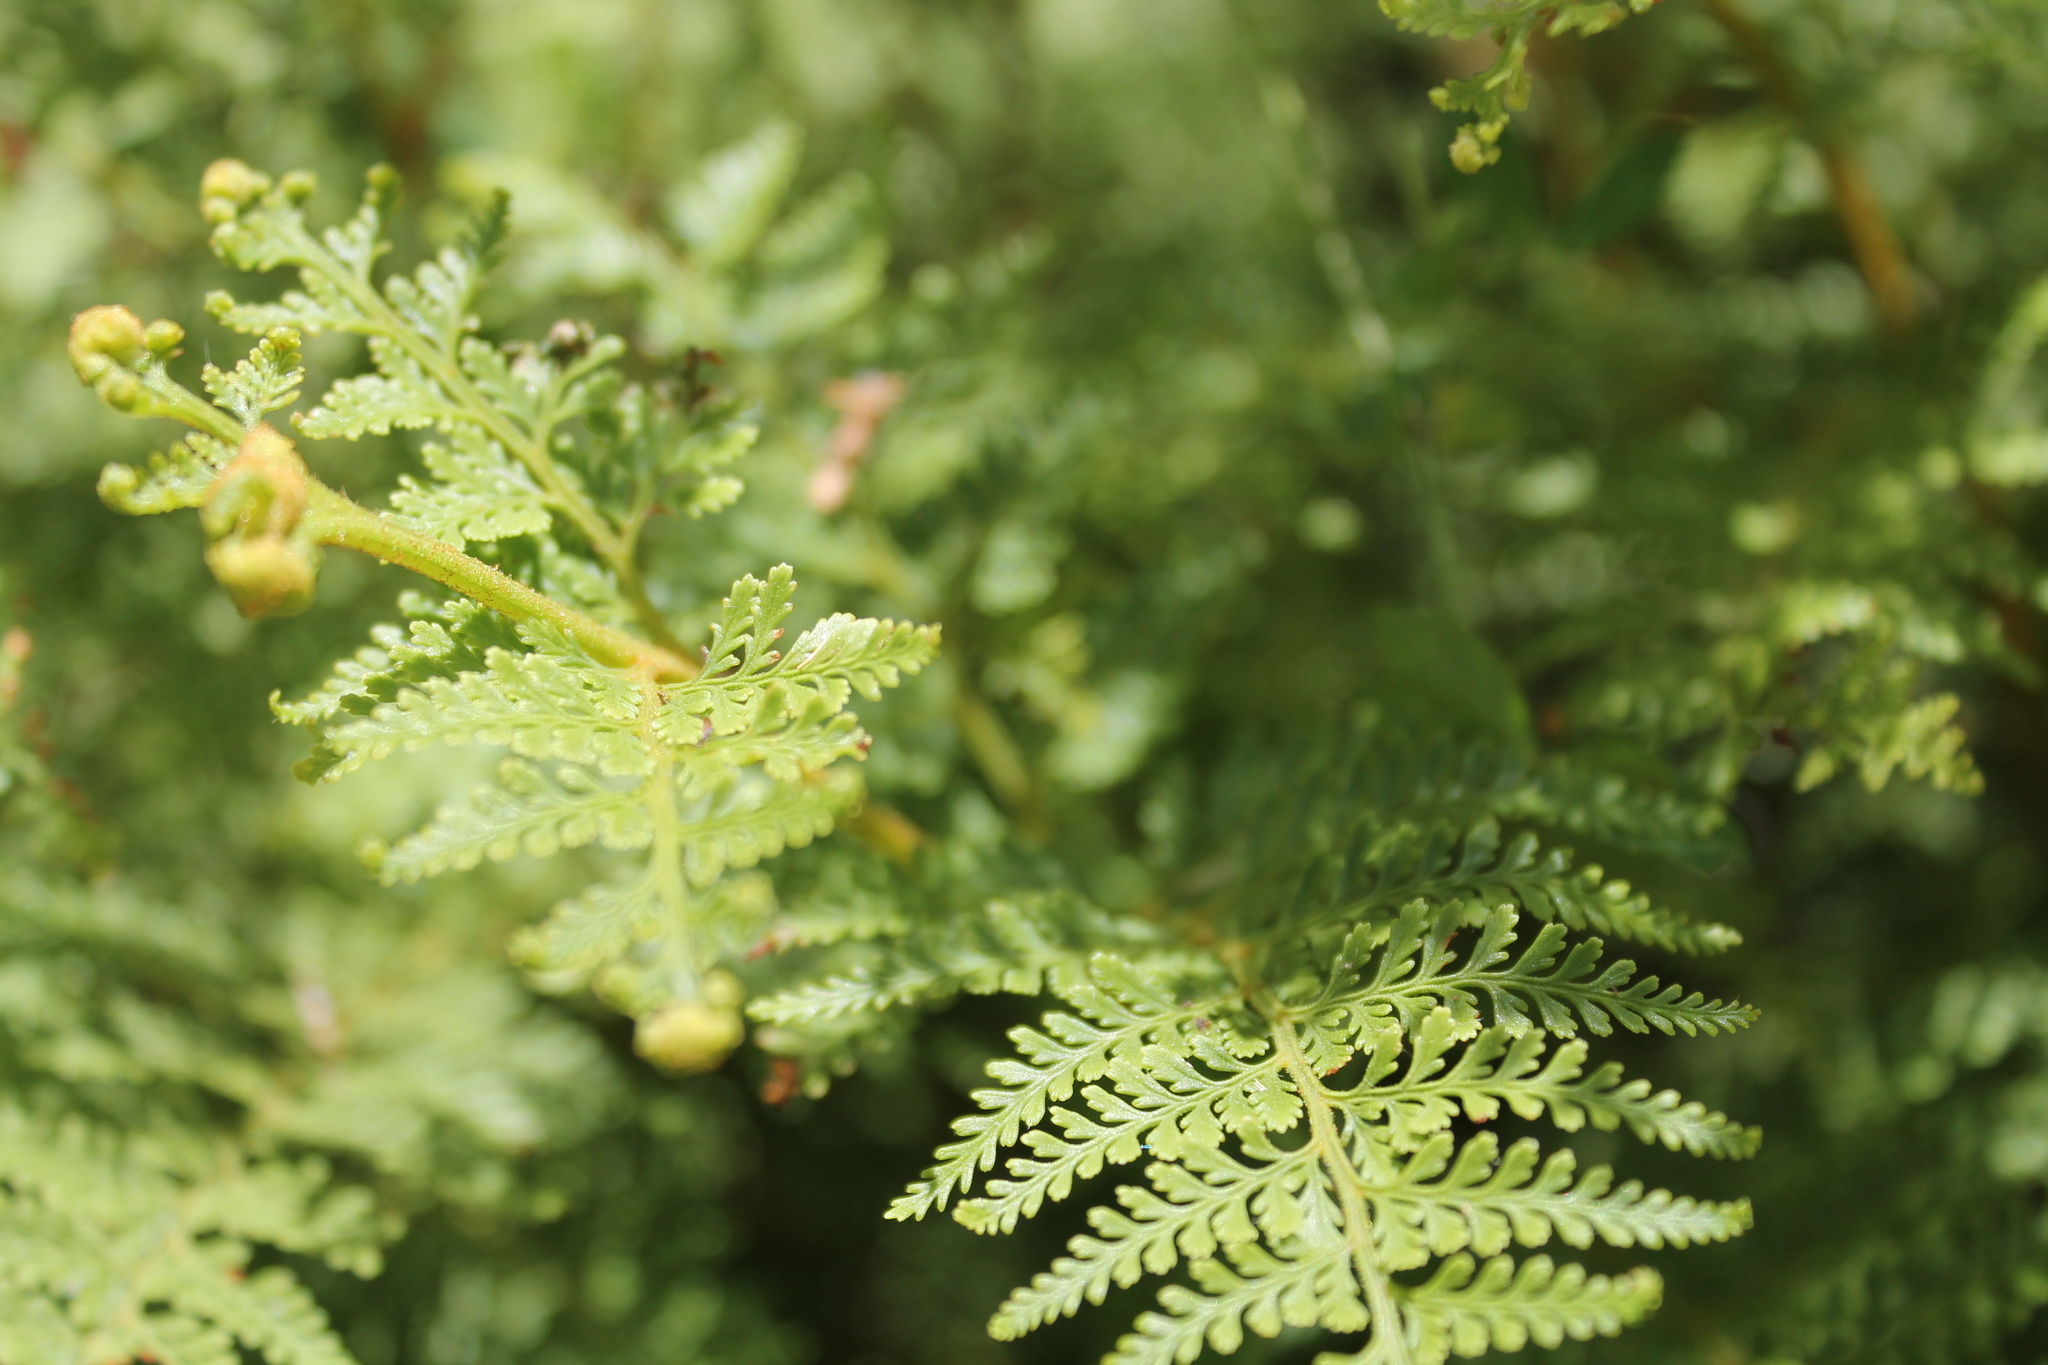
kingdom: Plantae
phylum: Tracheophyta
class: Polypodiopsida
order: Polypodiales
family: Dennstaedtiaceae
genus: Paesia
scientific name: Paesia scaberula
